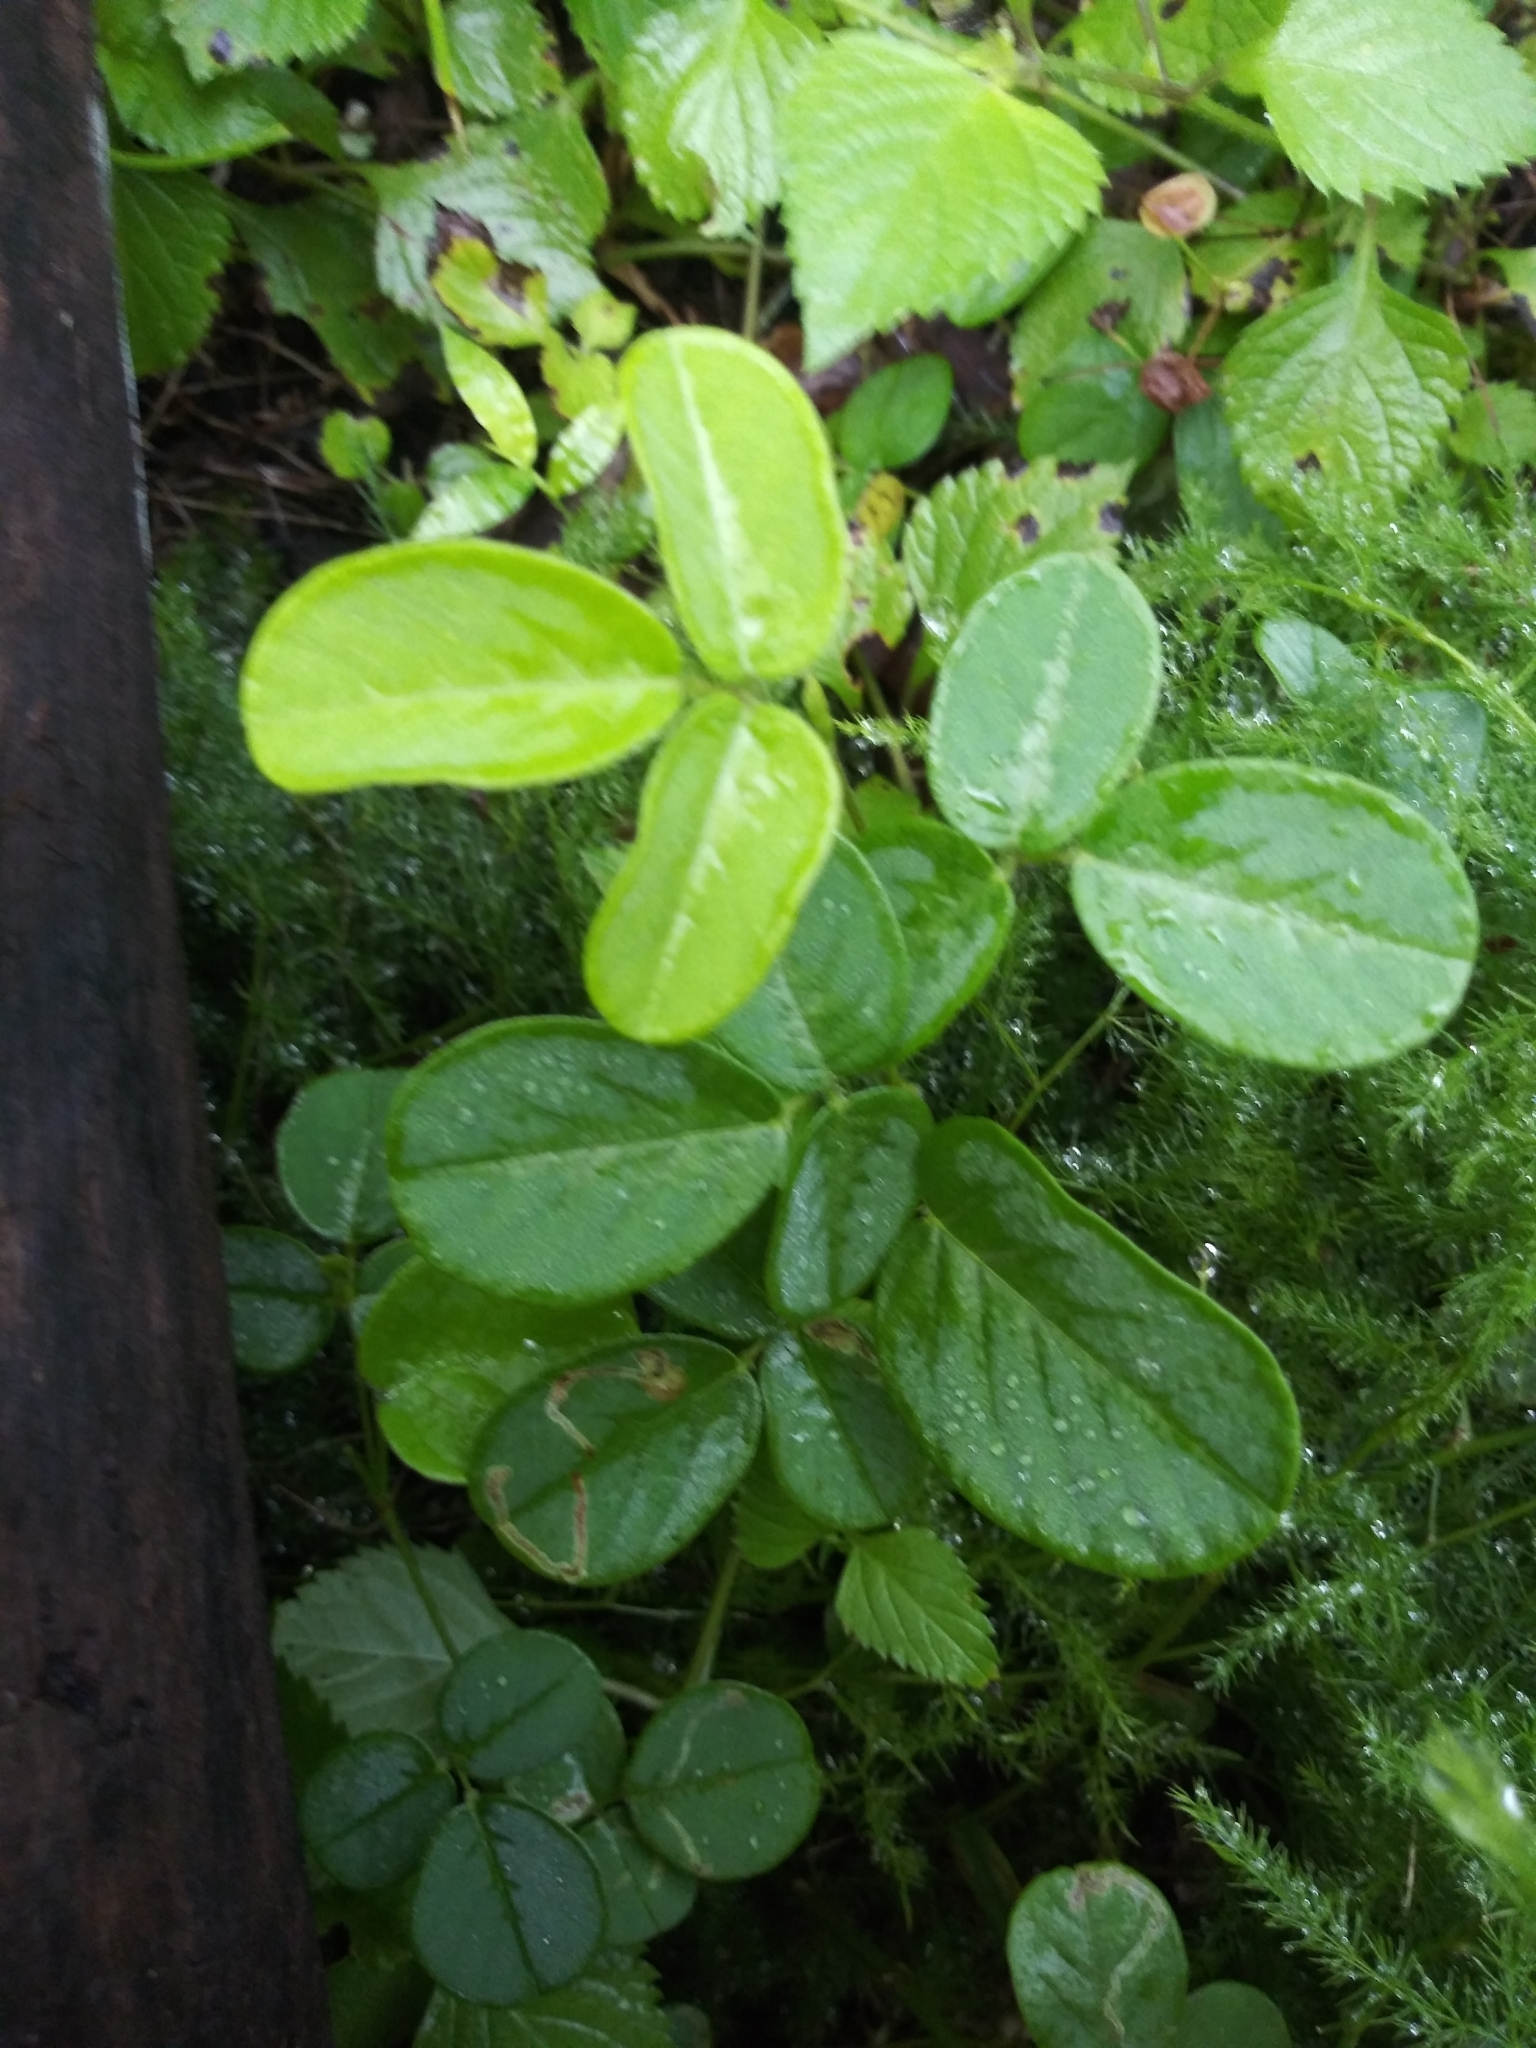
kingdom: Plantae
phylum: Tracheophyta
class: Magnoliopsida
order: Fabales
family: Fabaceae
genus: Desmodium
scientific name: Desmodium incanum
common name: Tickclover
